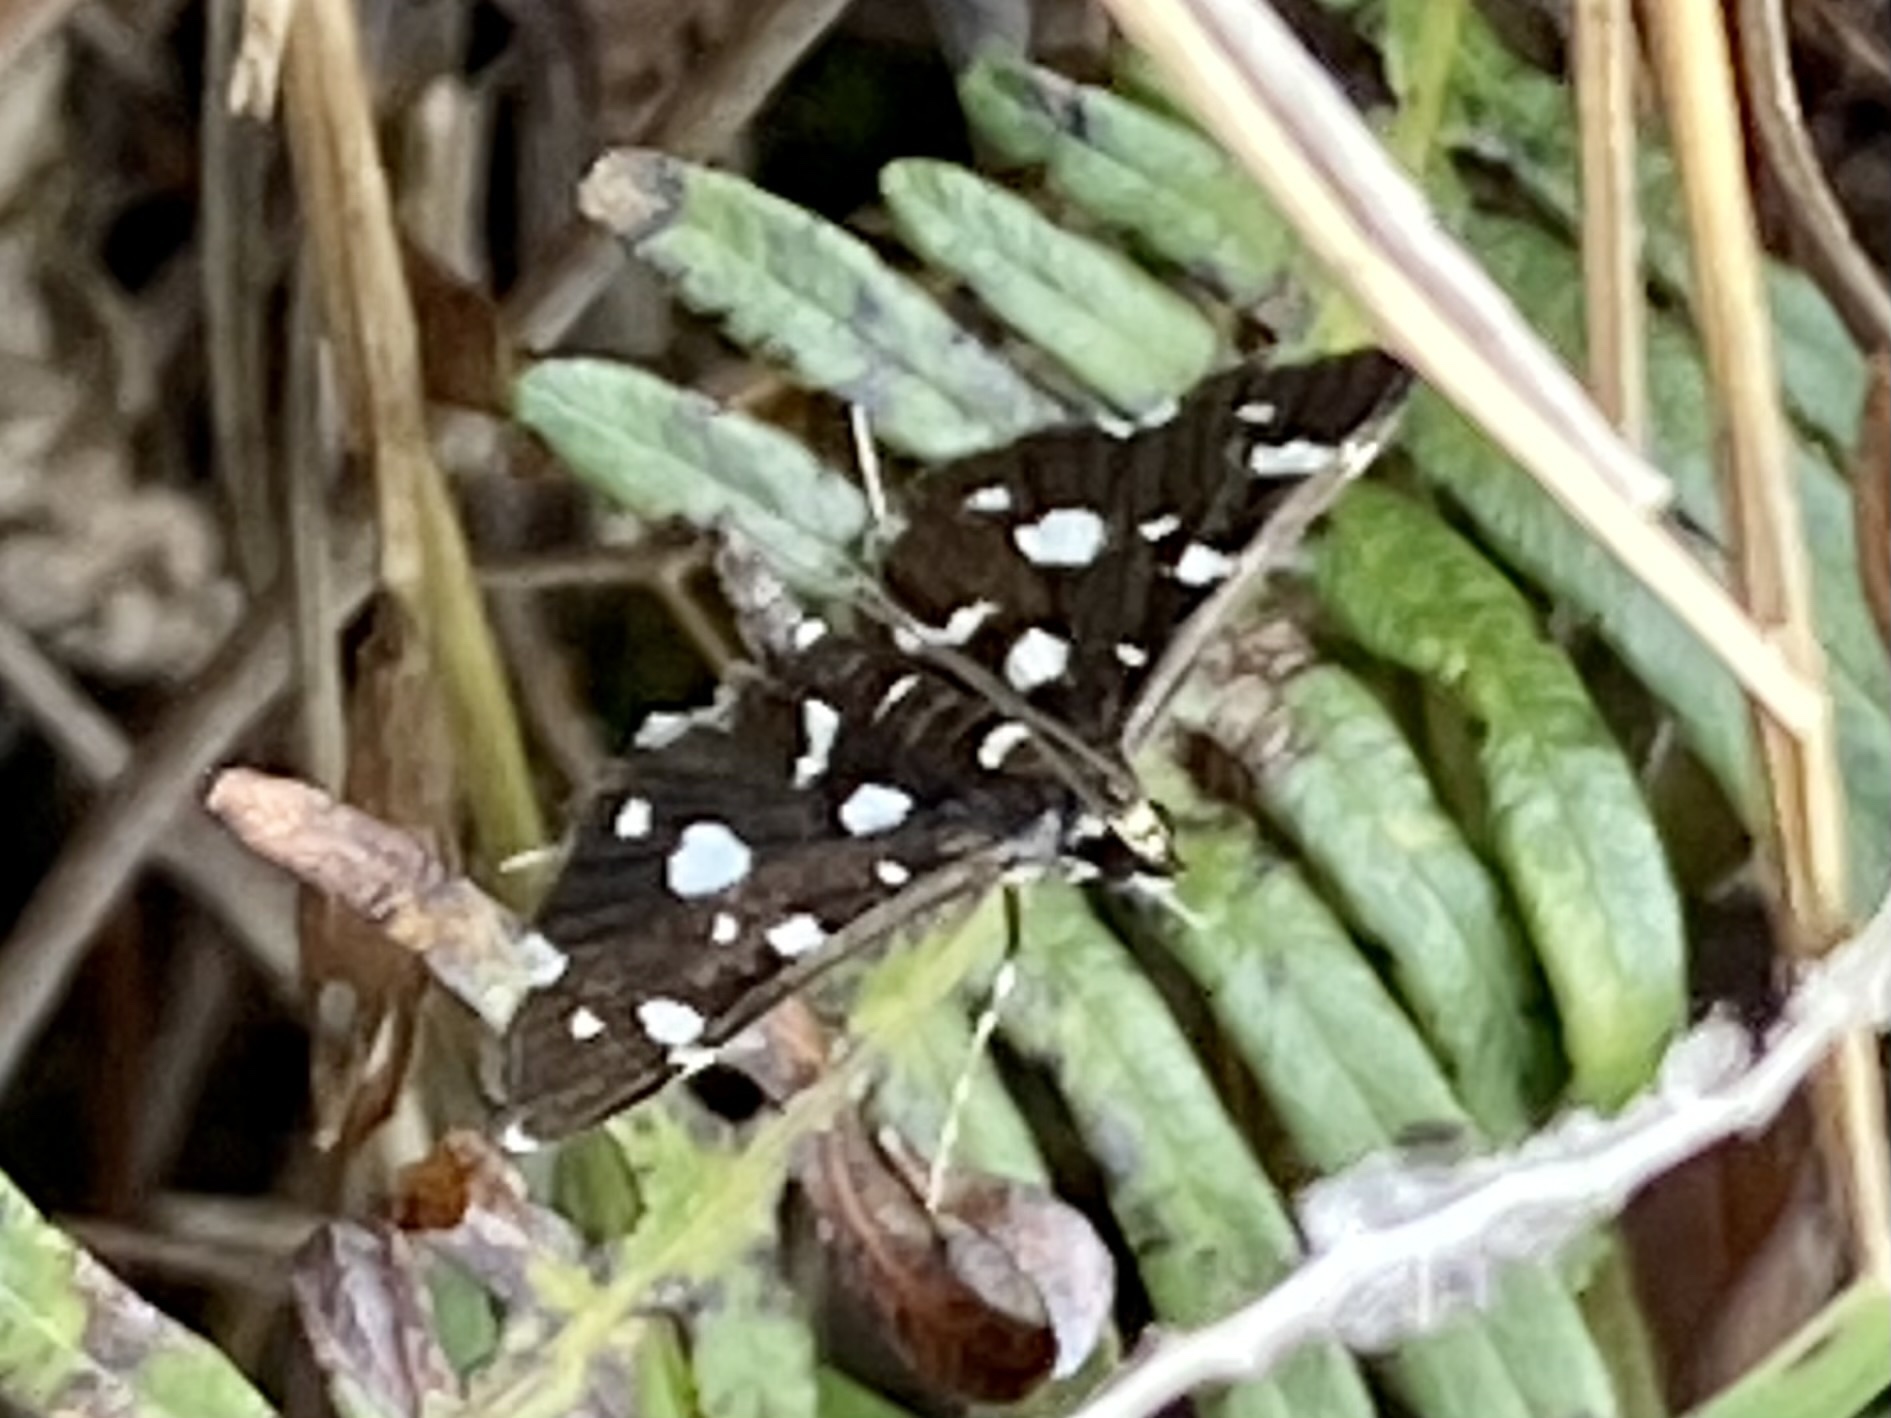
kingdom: Animalia
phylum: Arthropoda
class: Insecta
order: Lepidoptera
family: Crambidae
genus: Bocchoris
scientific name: Bocchoris inspersalis
